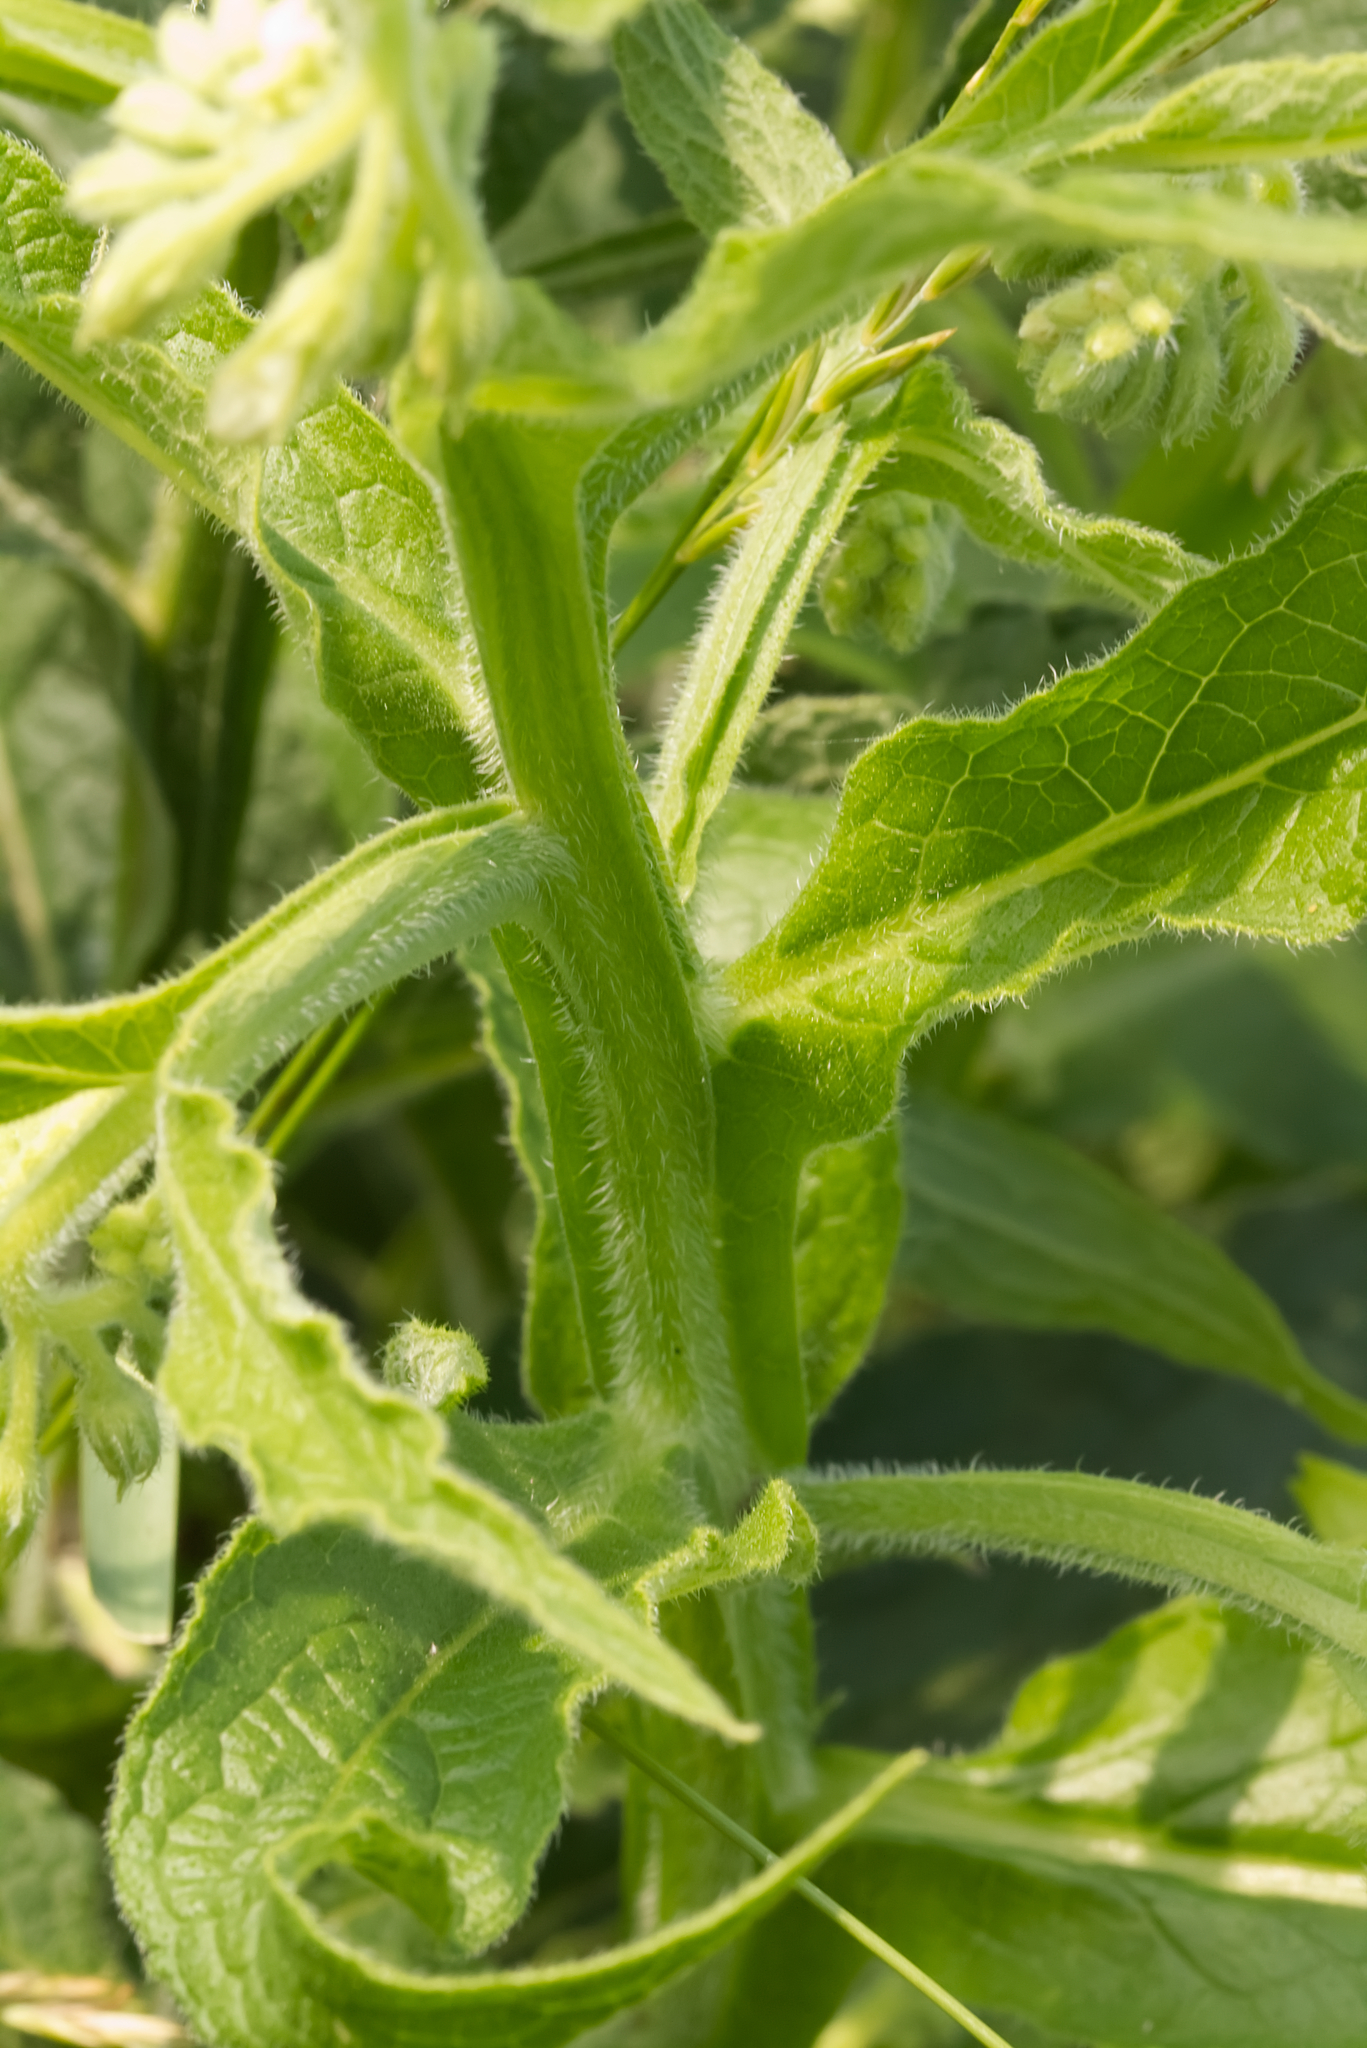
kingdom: Plantae
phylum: Tracheophyta
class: Magnoliopsida
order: Boraginales
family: Boraginaceae
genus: Symphytum
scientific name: Symphytum bohemicum
